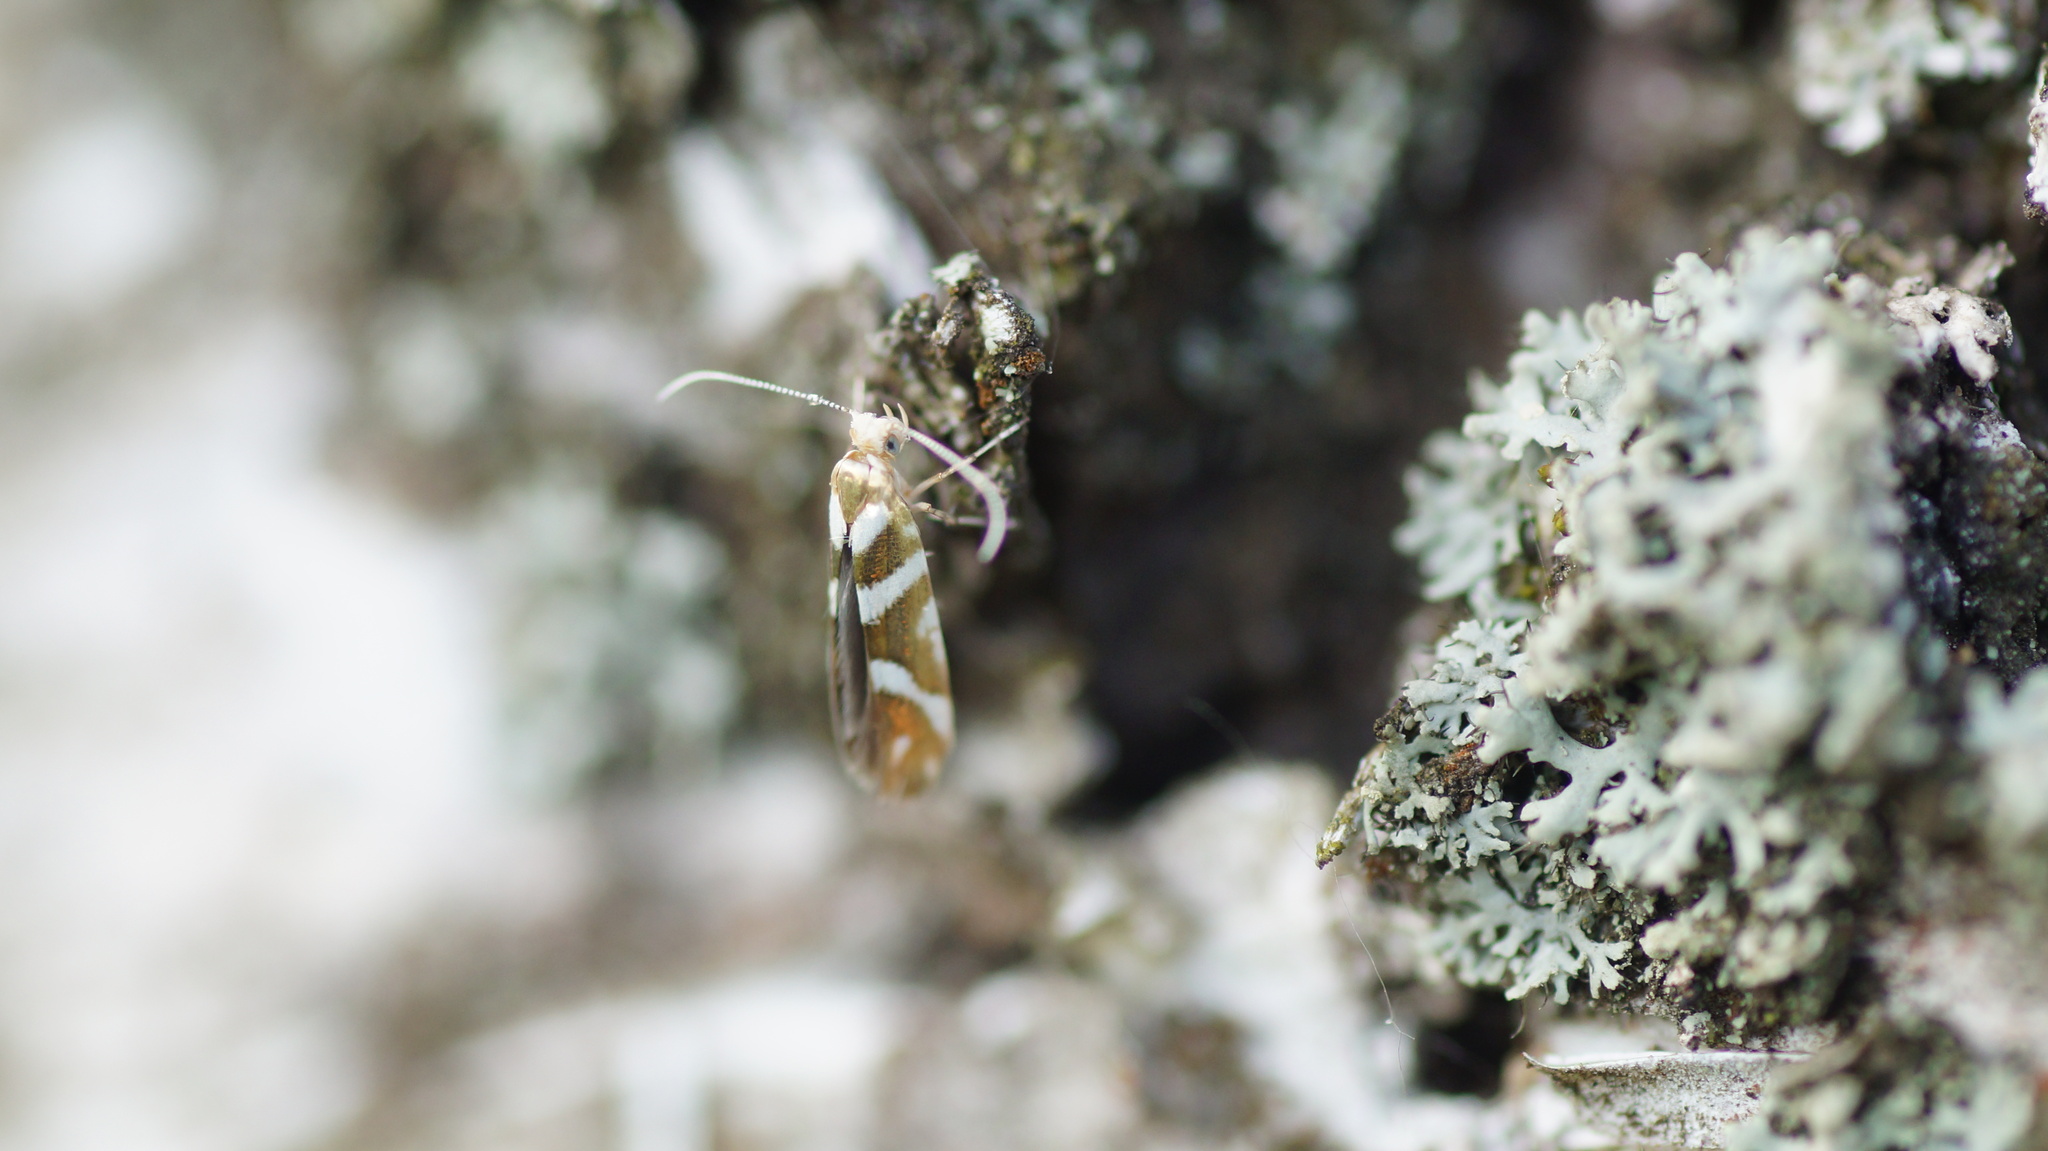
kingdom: Animalia
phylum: Arthropoda
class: Insecta
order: Lepidoptera
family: Argyresthiidae
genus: Argyresthia
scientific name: Argyresthia goedartella
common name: Golden argent
